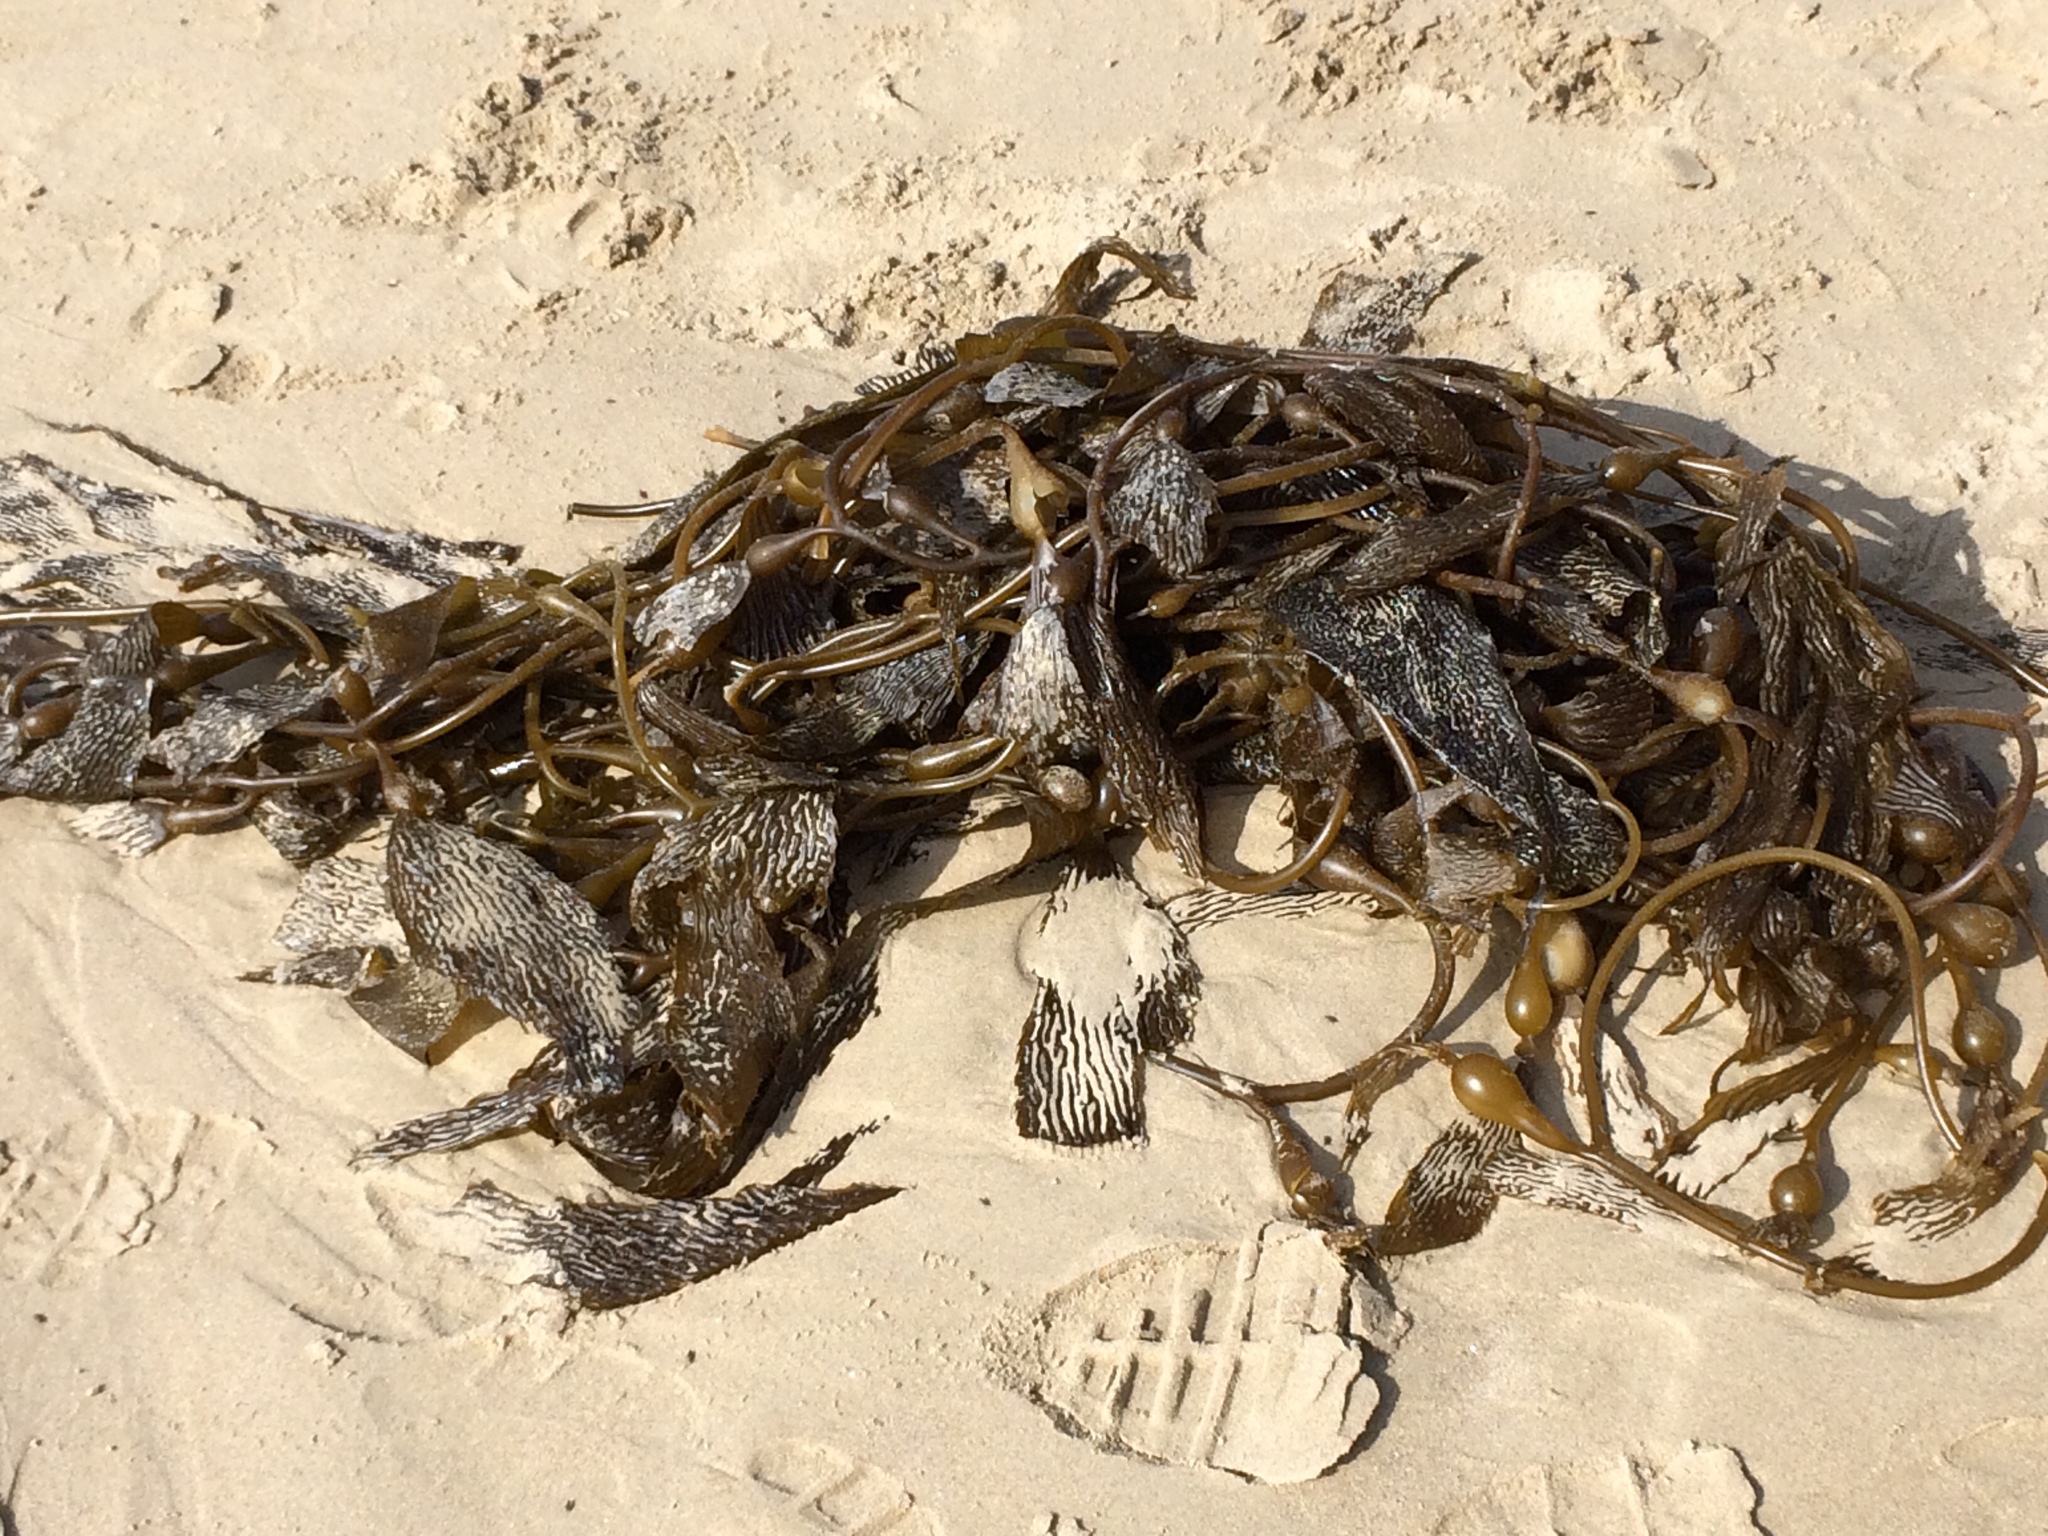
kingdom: Chromista
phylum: Ochrophyta
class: Phaeophyceae
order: Laminariales
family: Laminariaceae
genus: Macrocystis
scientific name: Macrocystis pyrifera
